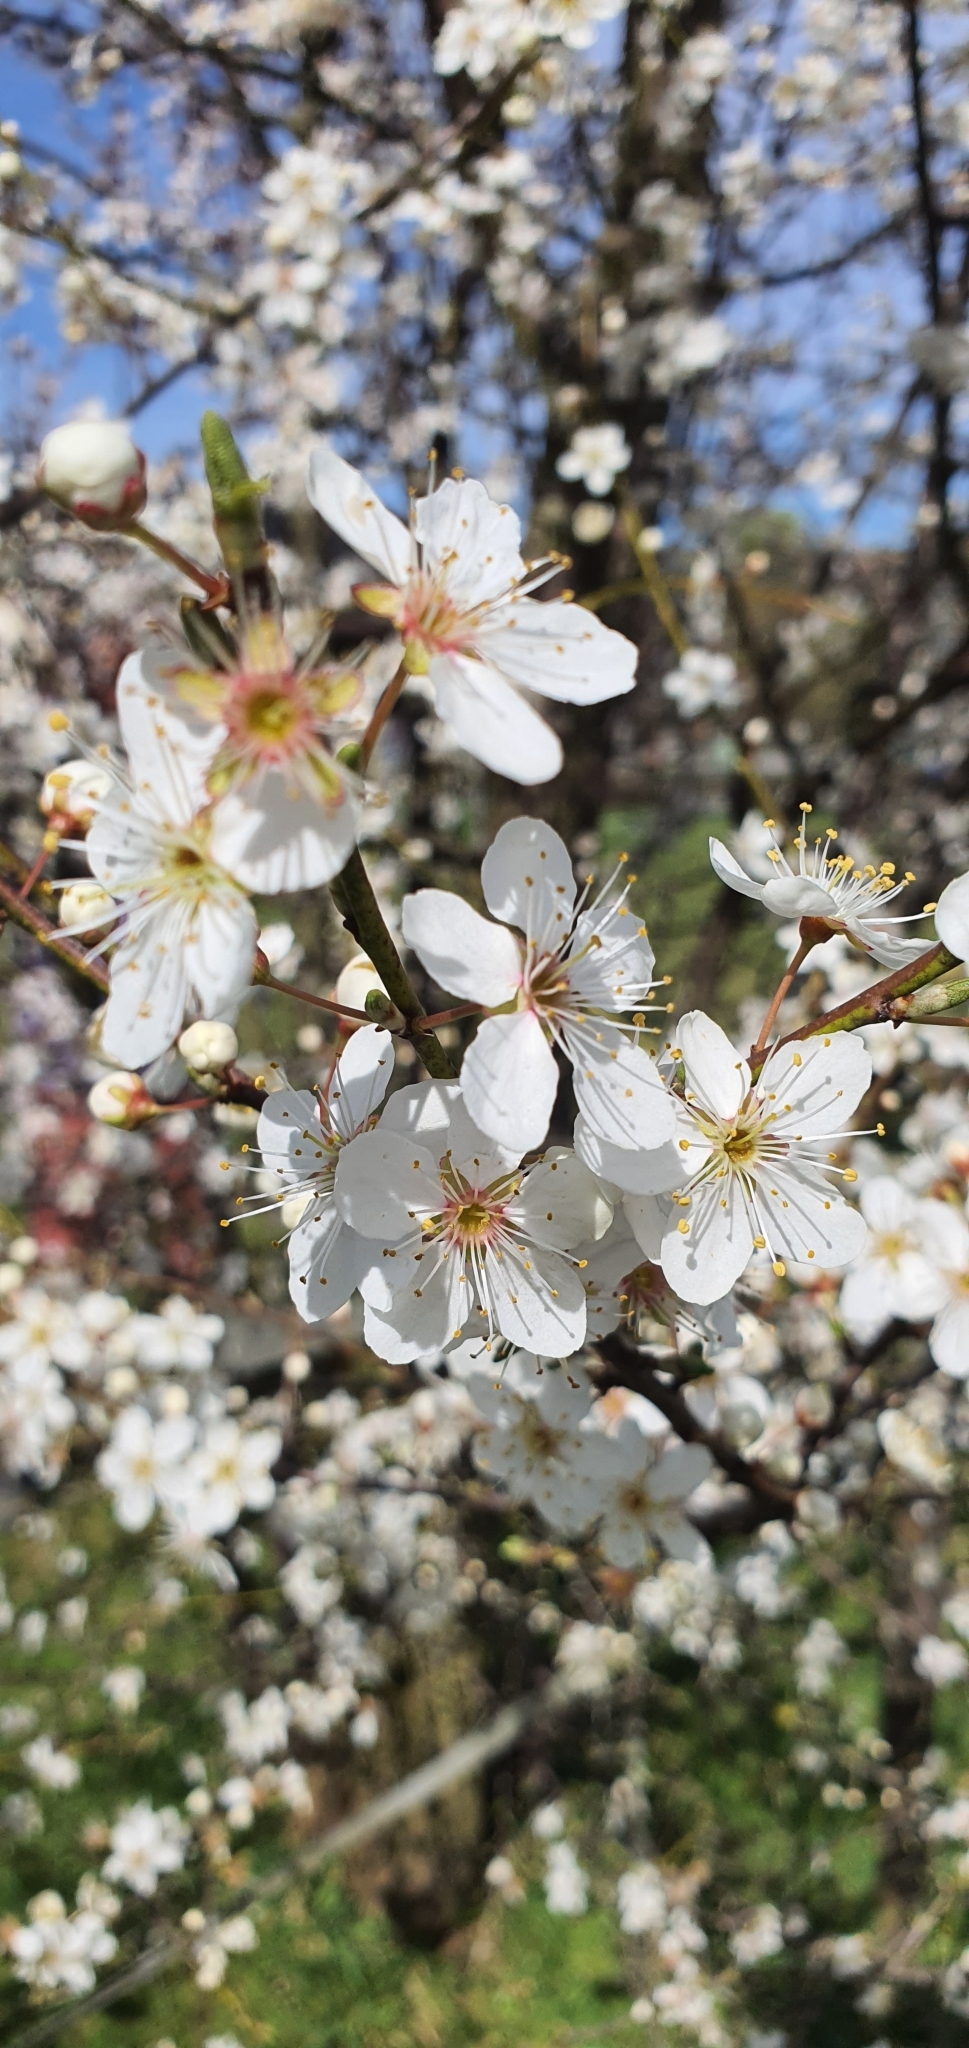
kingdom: Plantae
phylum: Tracheophyta
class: Magnoliopsida
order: Rosales
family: Rosaceae
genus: Prunus
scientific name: Prunus cerasifera
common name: Cherry plum
